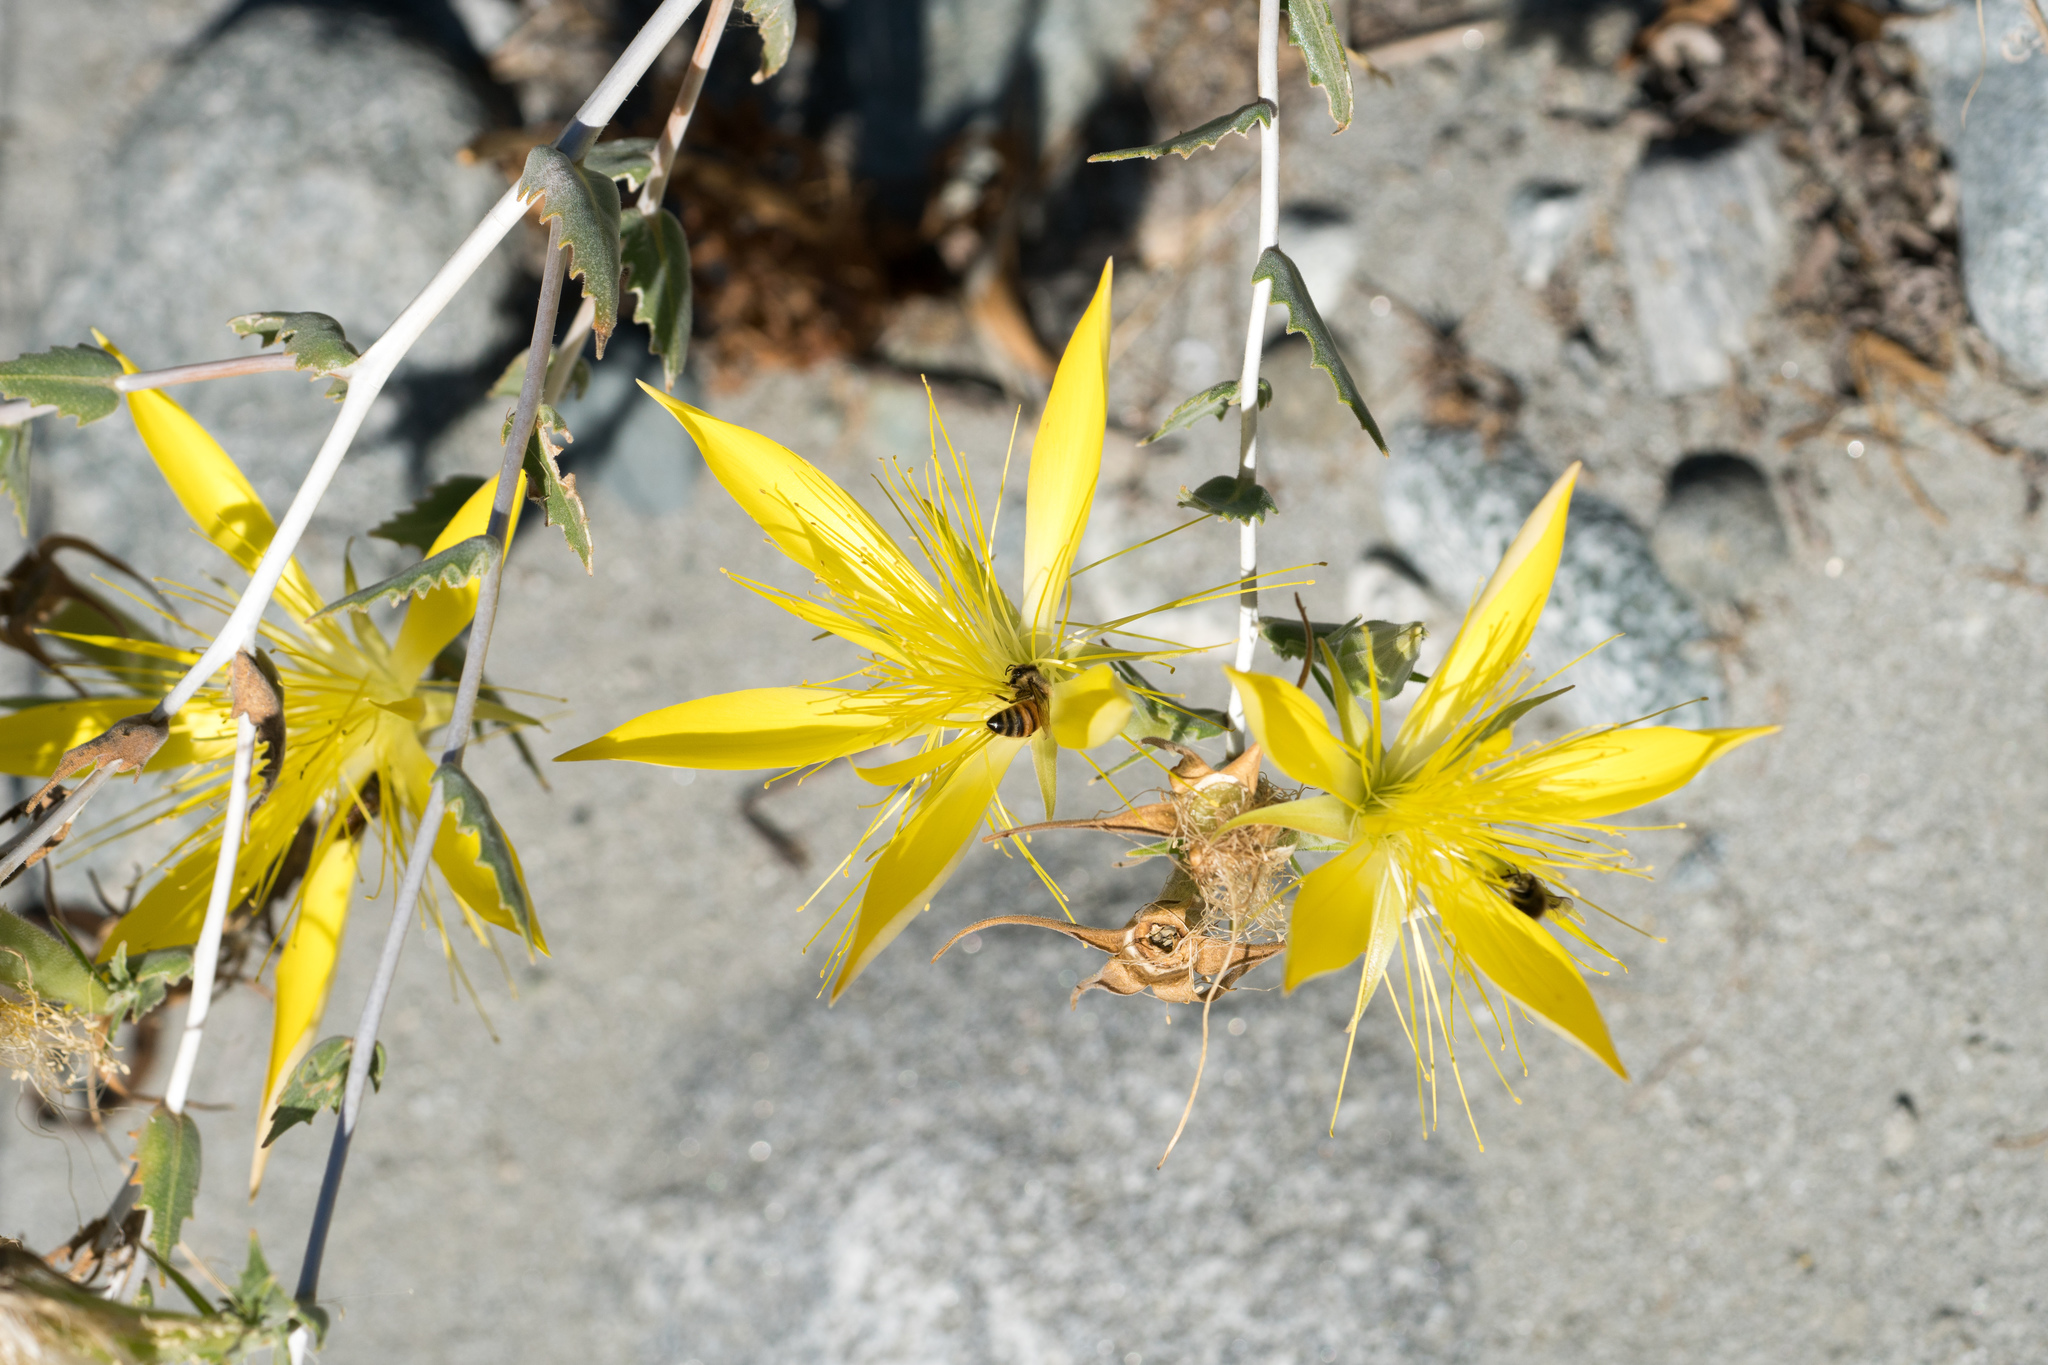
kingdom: Plantae
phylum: Tracheophyta
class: Magnoliopsida
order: Cornales
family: Loasaceae
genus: Mentzelia
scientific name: Mentzelia laevicaulis
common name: Smooth-stem blazingstar
